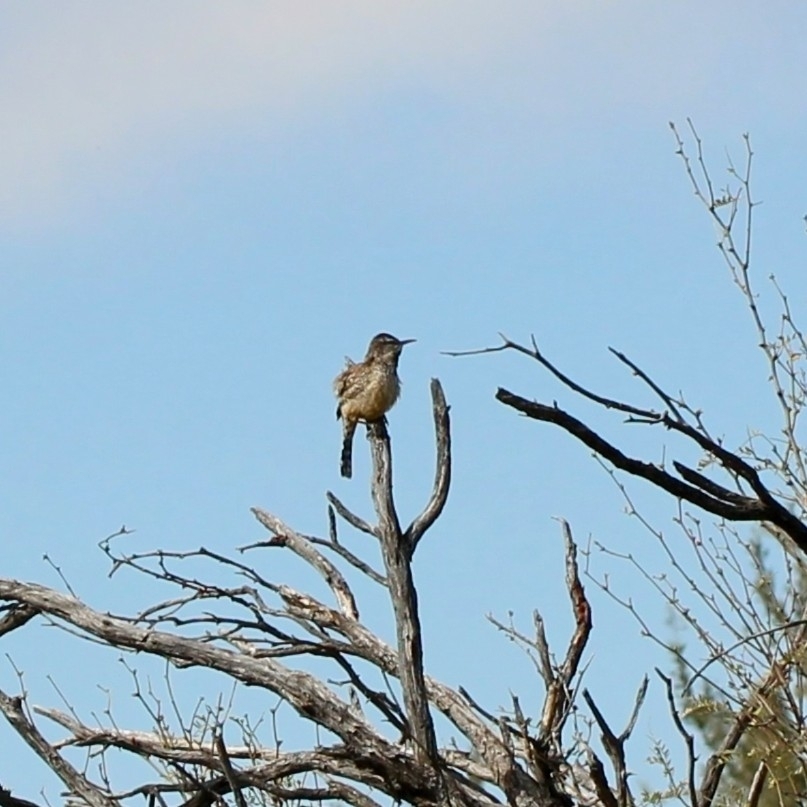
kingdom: Animalia
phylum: Chordata
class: Aves
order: Passeriformes
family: Troglodytidae
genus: Campylorhynchus
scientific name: Campylorhynchus brunneicapillus
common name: Cactus wren
